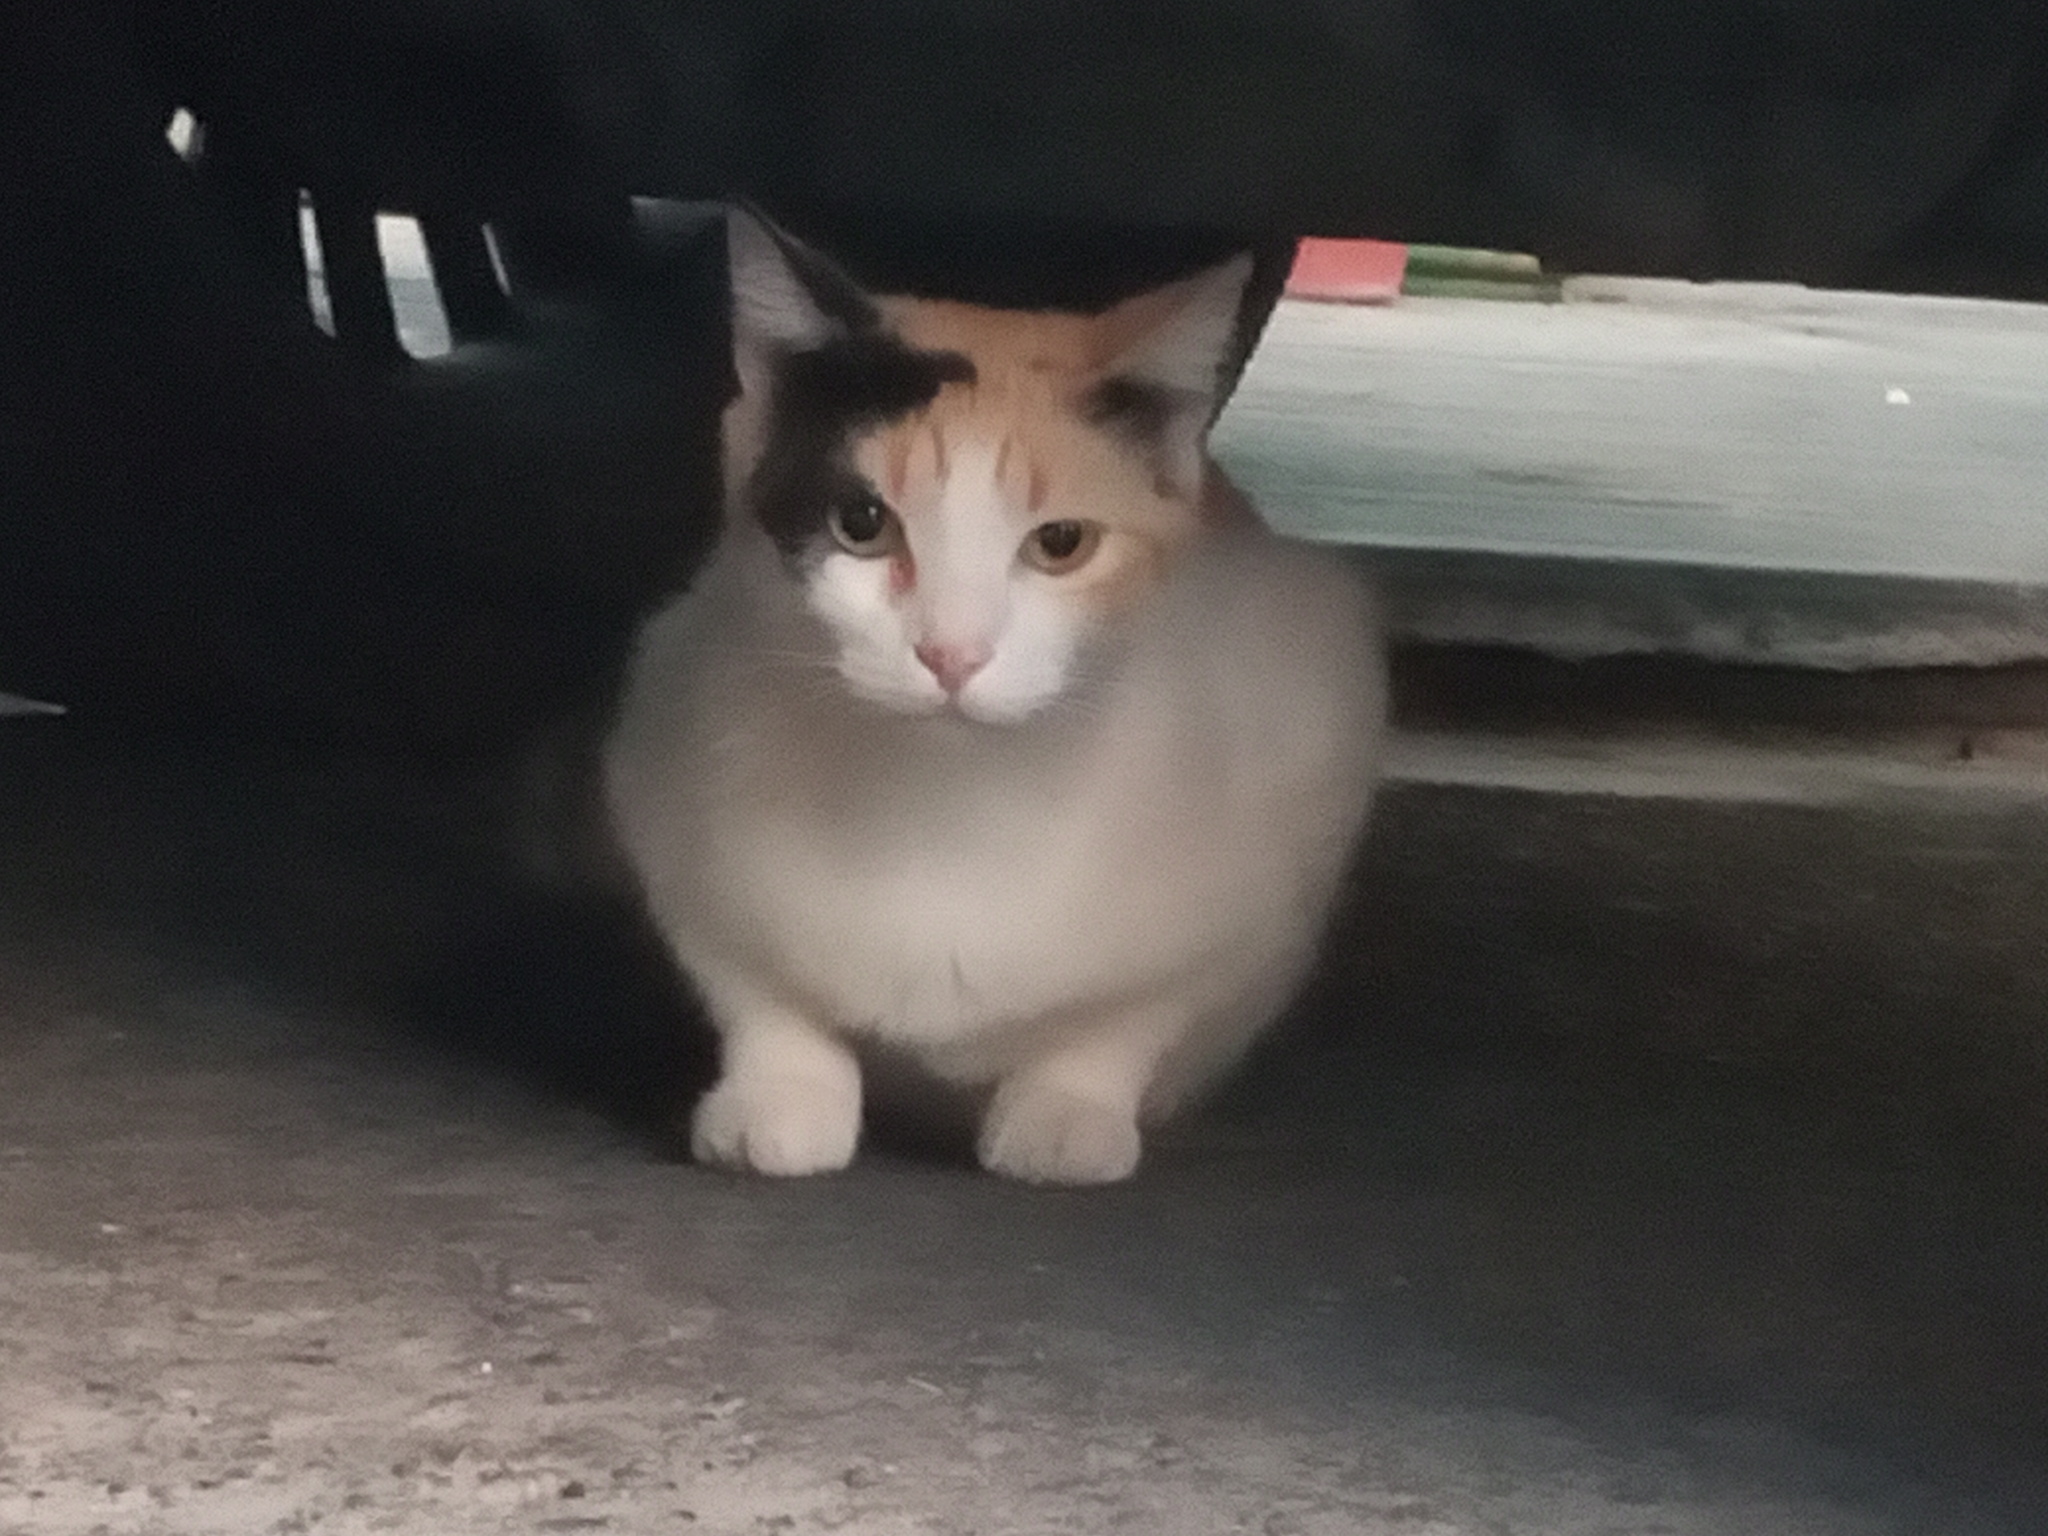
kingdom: Animalia
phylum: Chordata
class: Mammalia
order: Carnivora
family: Felidae
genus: Felis
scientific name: Felis catus
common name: Domestic cat
